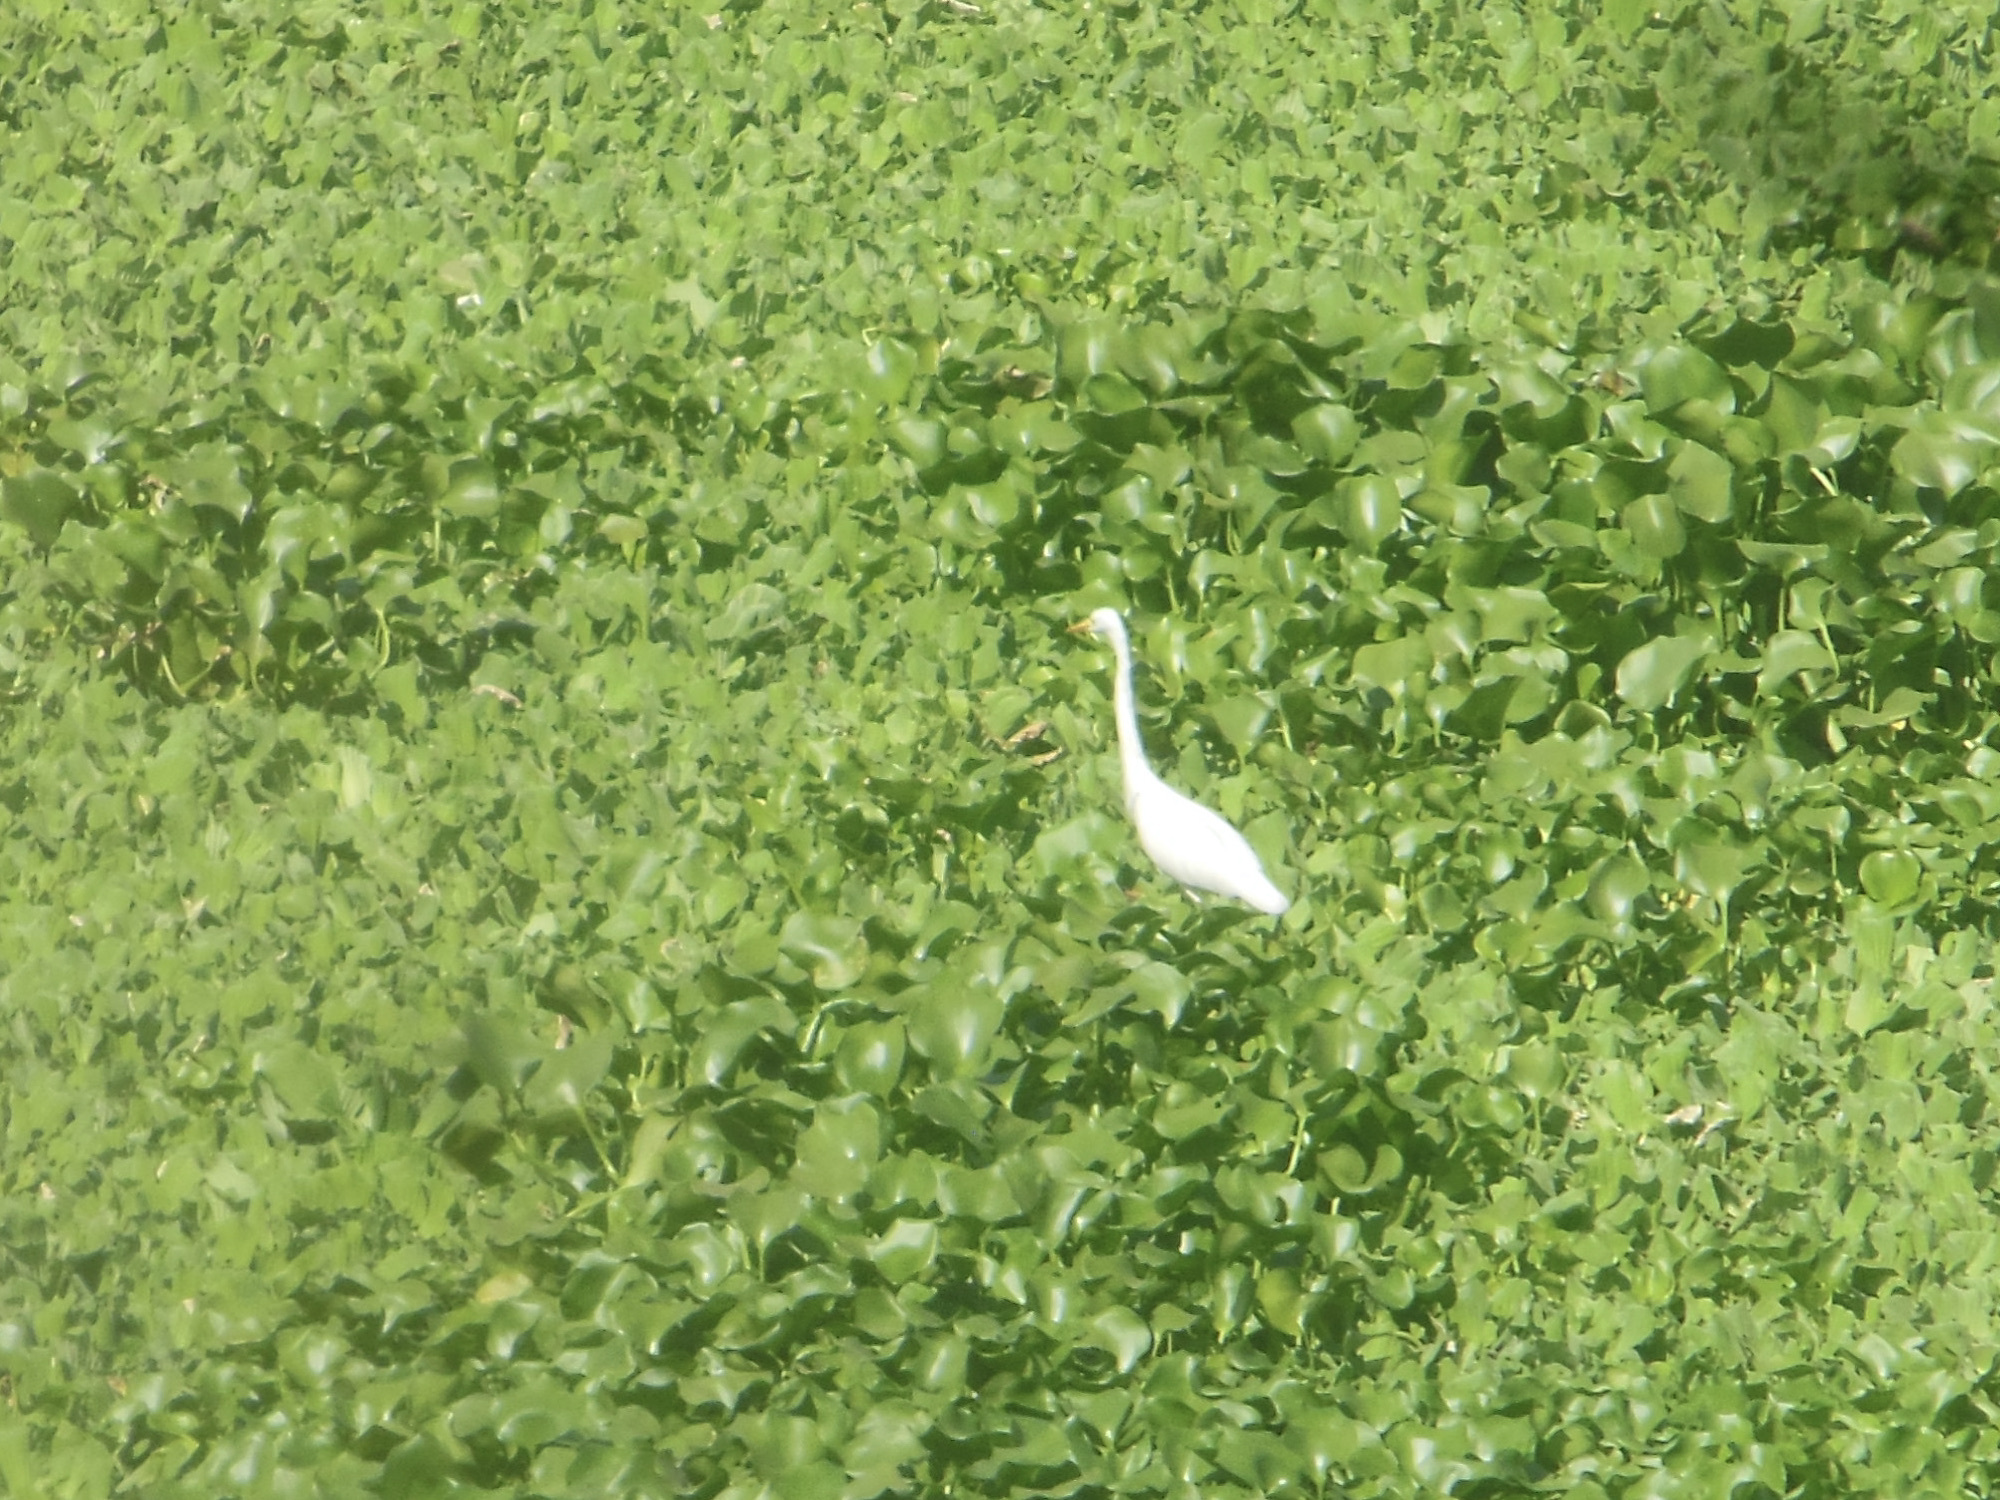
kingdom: Animalia
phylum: Chordata
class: Aves
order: Pelecaniformes
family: Ardeidae
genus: Egretta
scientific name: Egretta intermedia
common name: Intermediate egret
